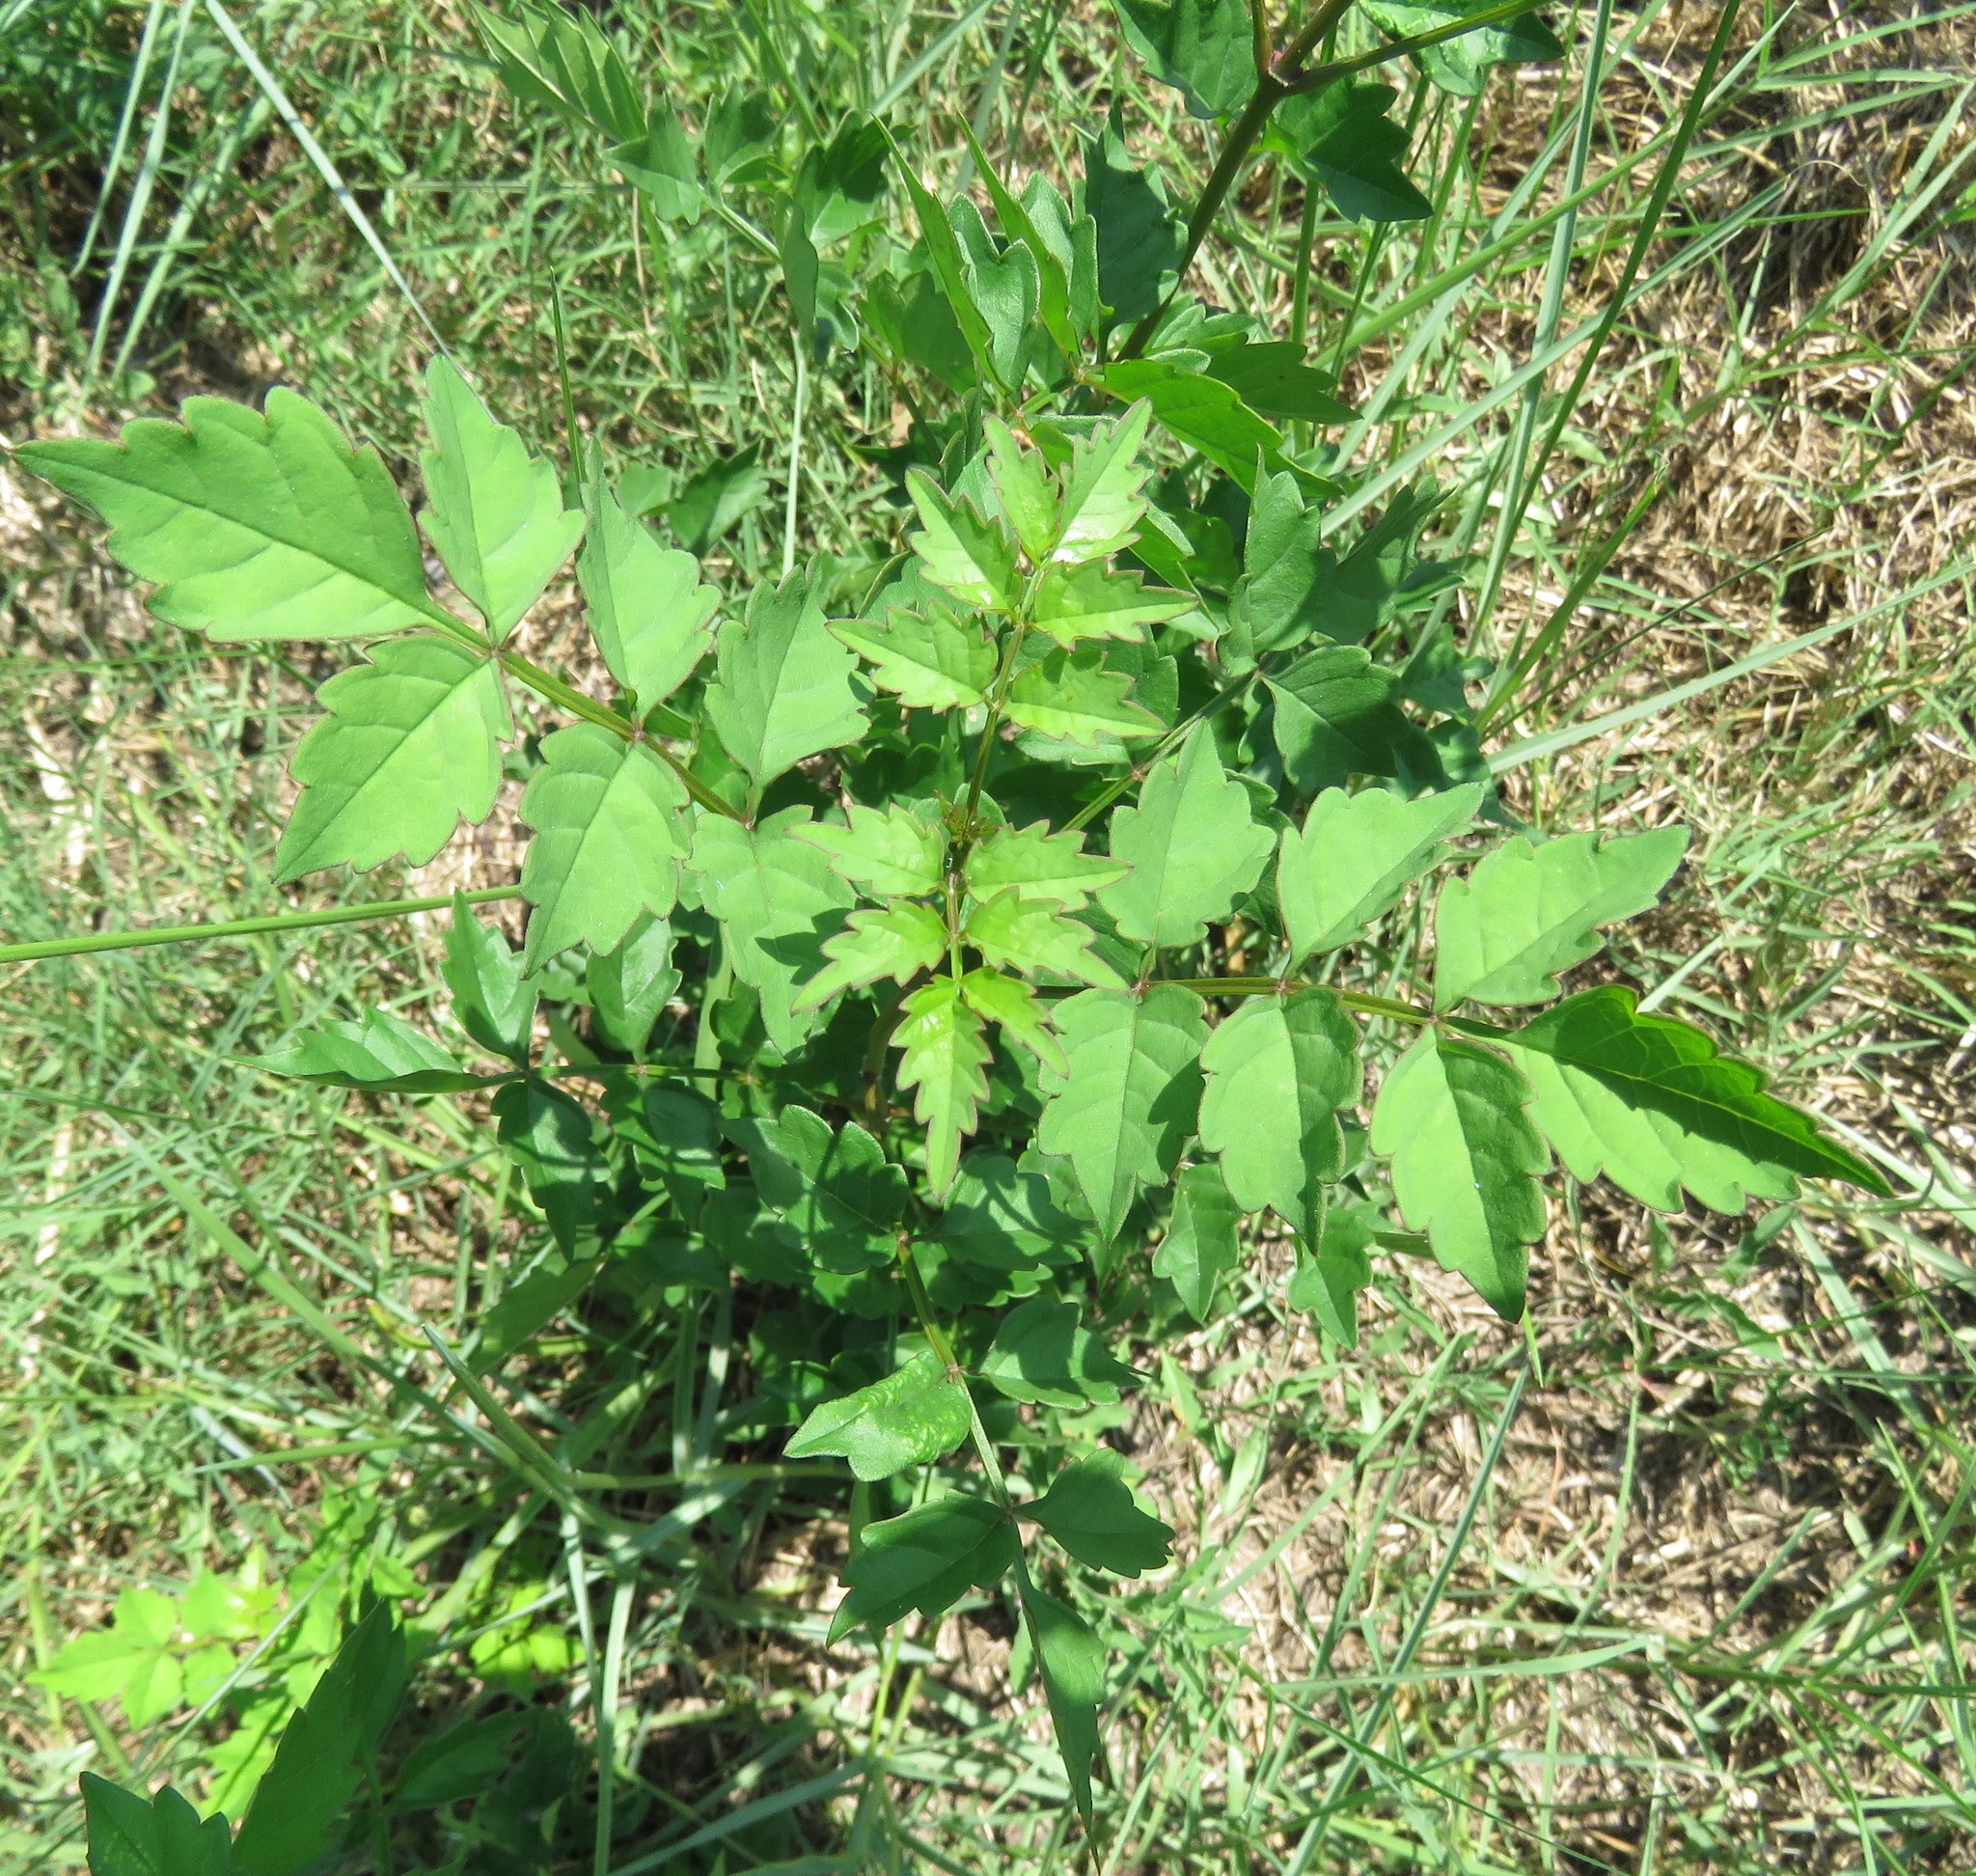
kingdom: Plantae
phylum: Tracheophyta
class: Magnoliopsida
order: Lamiales
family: Bignoniaceae
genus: Campsis
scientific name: Campsis radicans
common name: Trumpet-creeper
